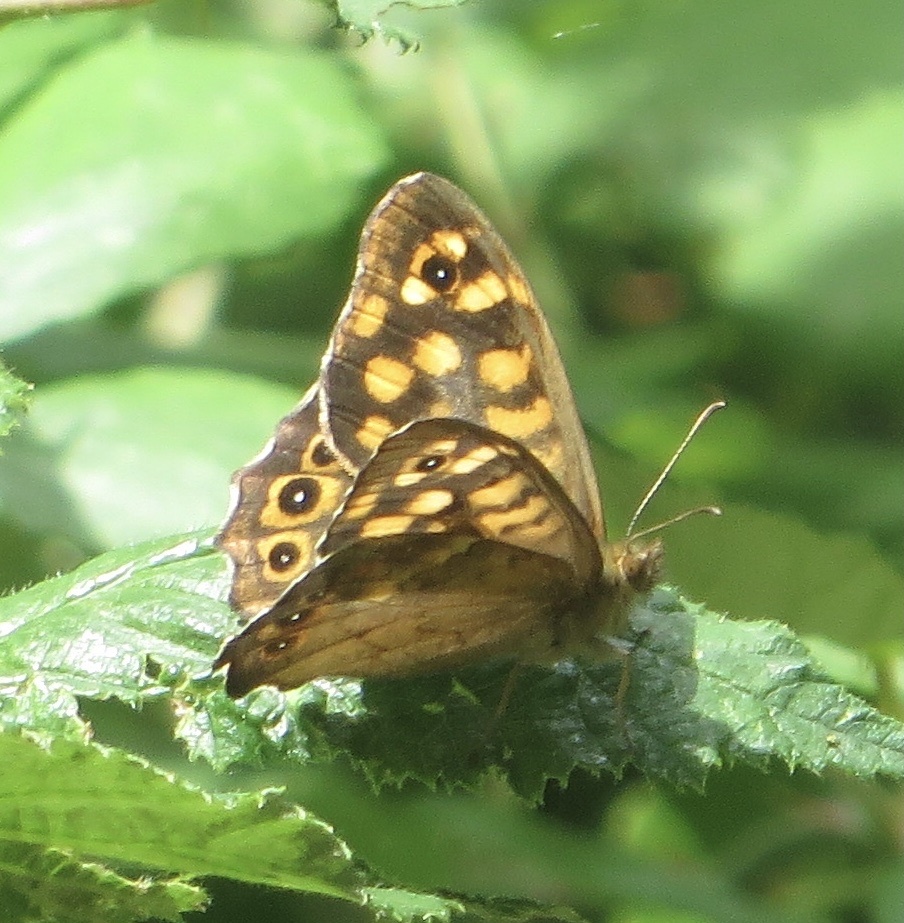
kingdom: Animalia
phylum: Arthropoda
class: Insecta
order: Lepidoptera
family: Nymphalidae
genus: Pararge
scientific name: Pararge aegeria
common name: Speckled wood
